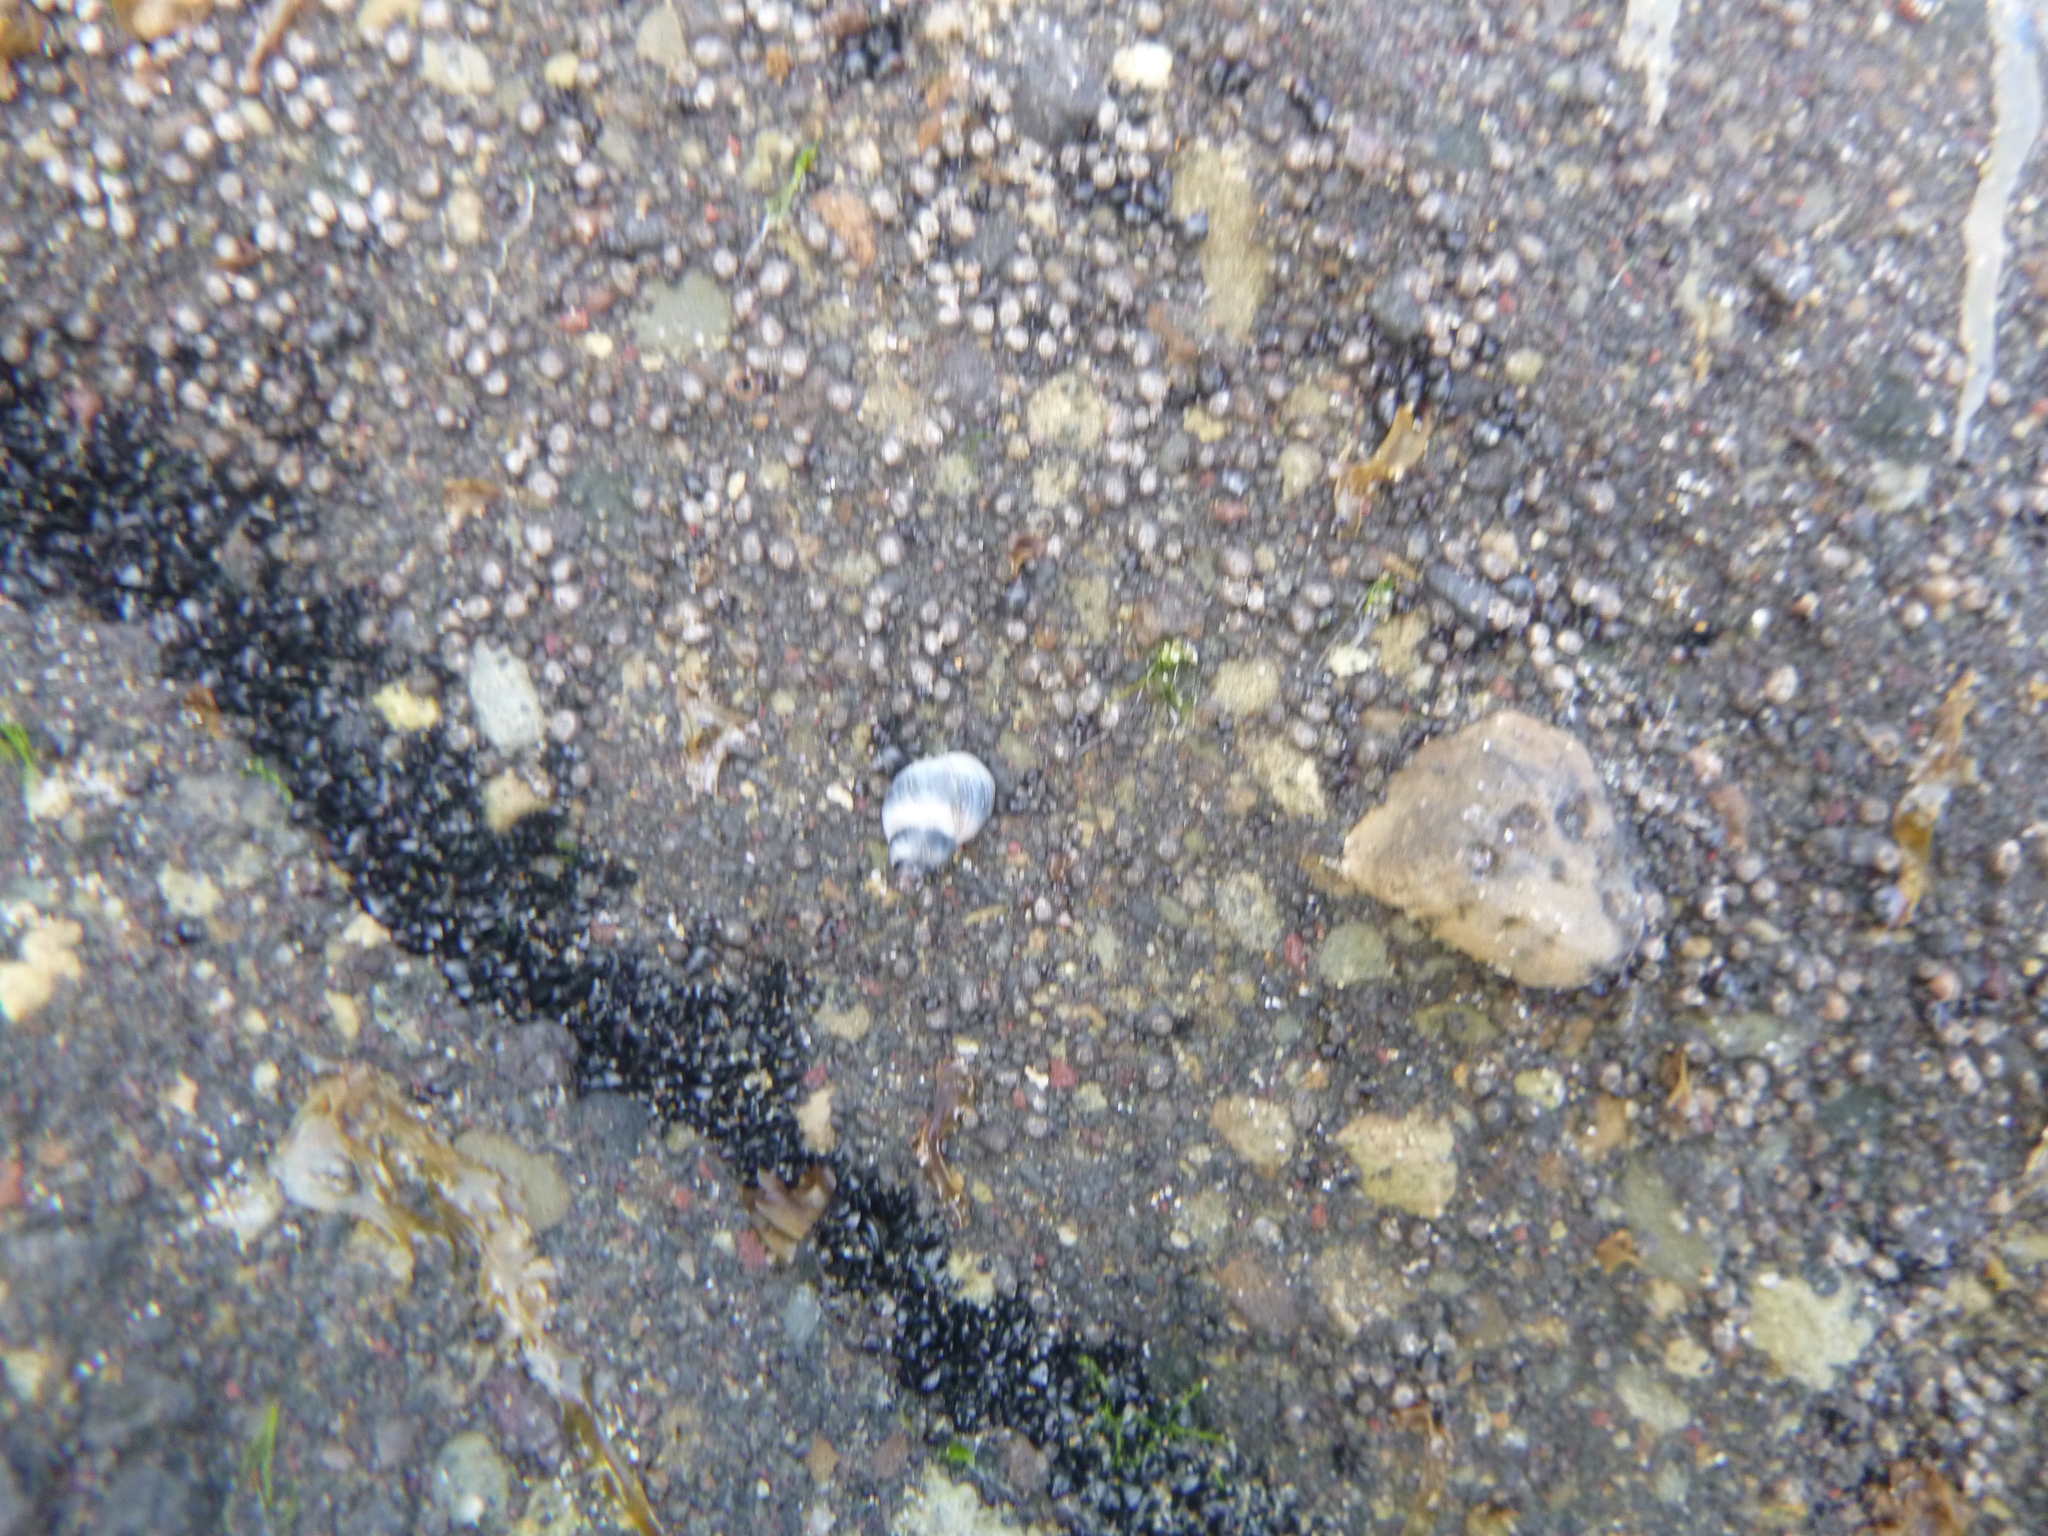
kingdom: Animalia
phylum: Mollusca
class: Gastropoda
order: Littorinimorpha
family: Littorinidae
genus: Austrolittorina
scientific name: Austrolittorina antipodum
